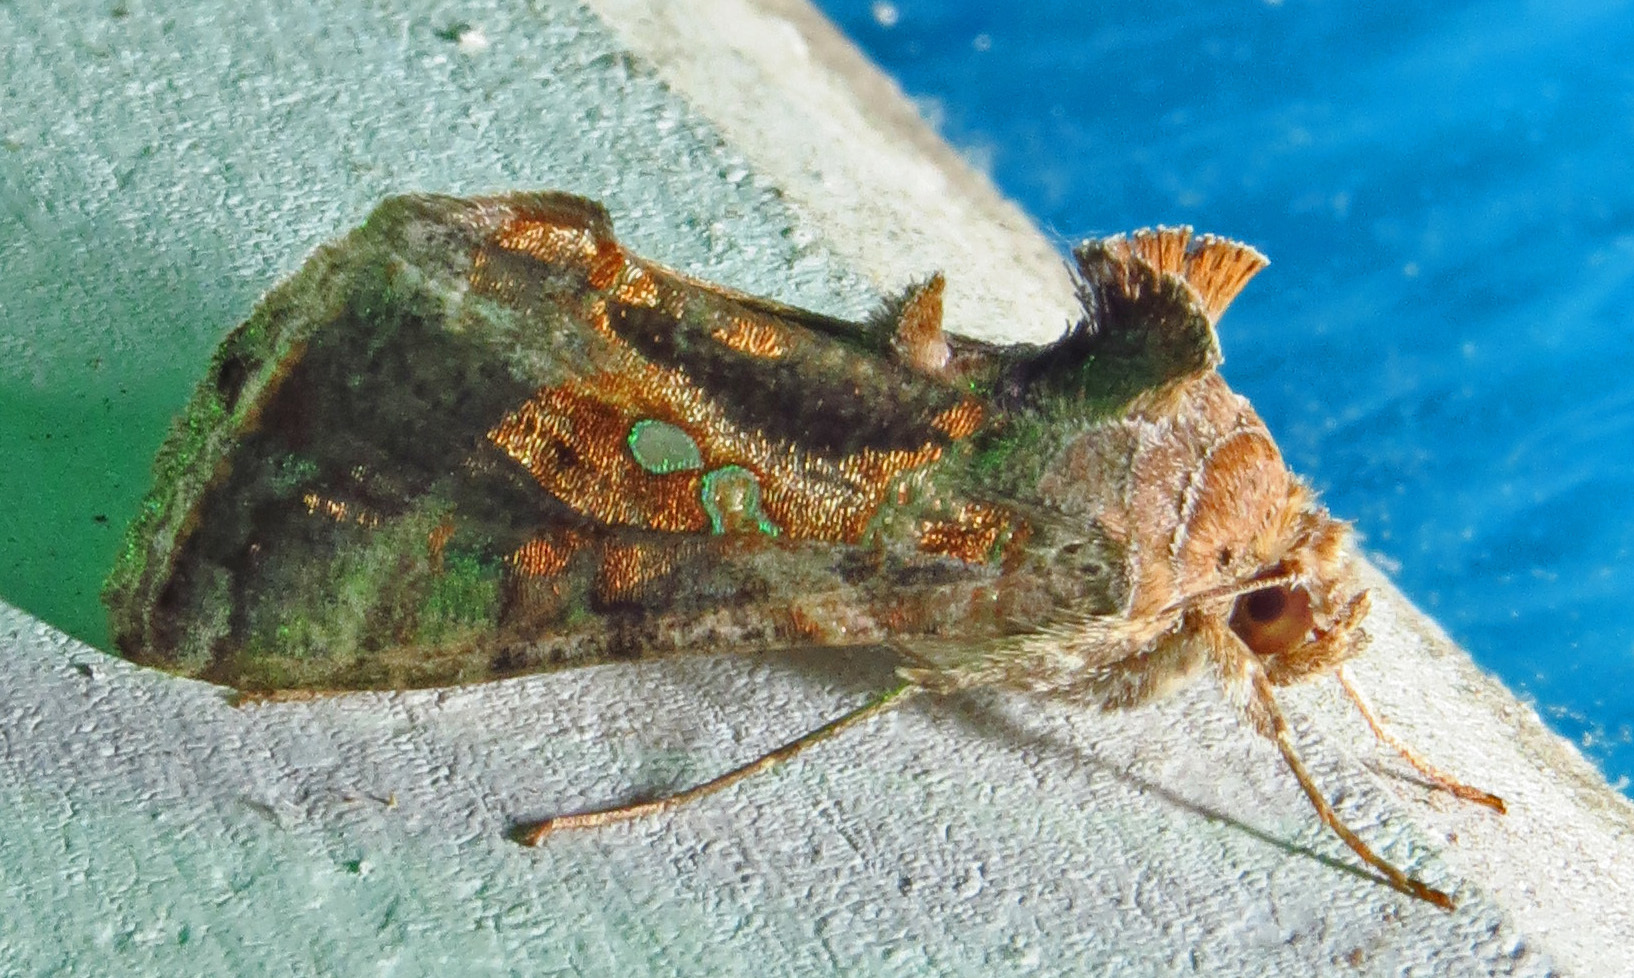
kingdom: Animalia
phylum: Arthropoda
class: Insecta
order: Lepidoptera
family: Noctuidae
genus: Chrysodeixis
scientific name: Chrysodeixis includens
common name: Cutworm moth
